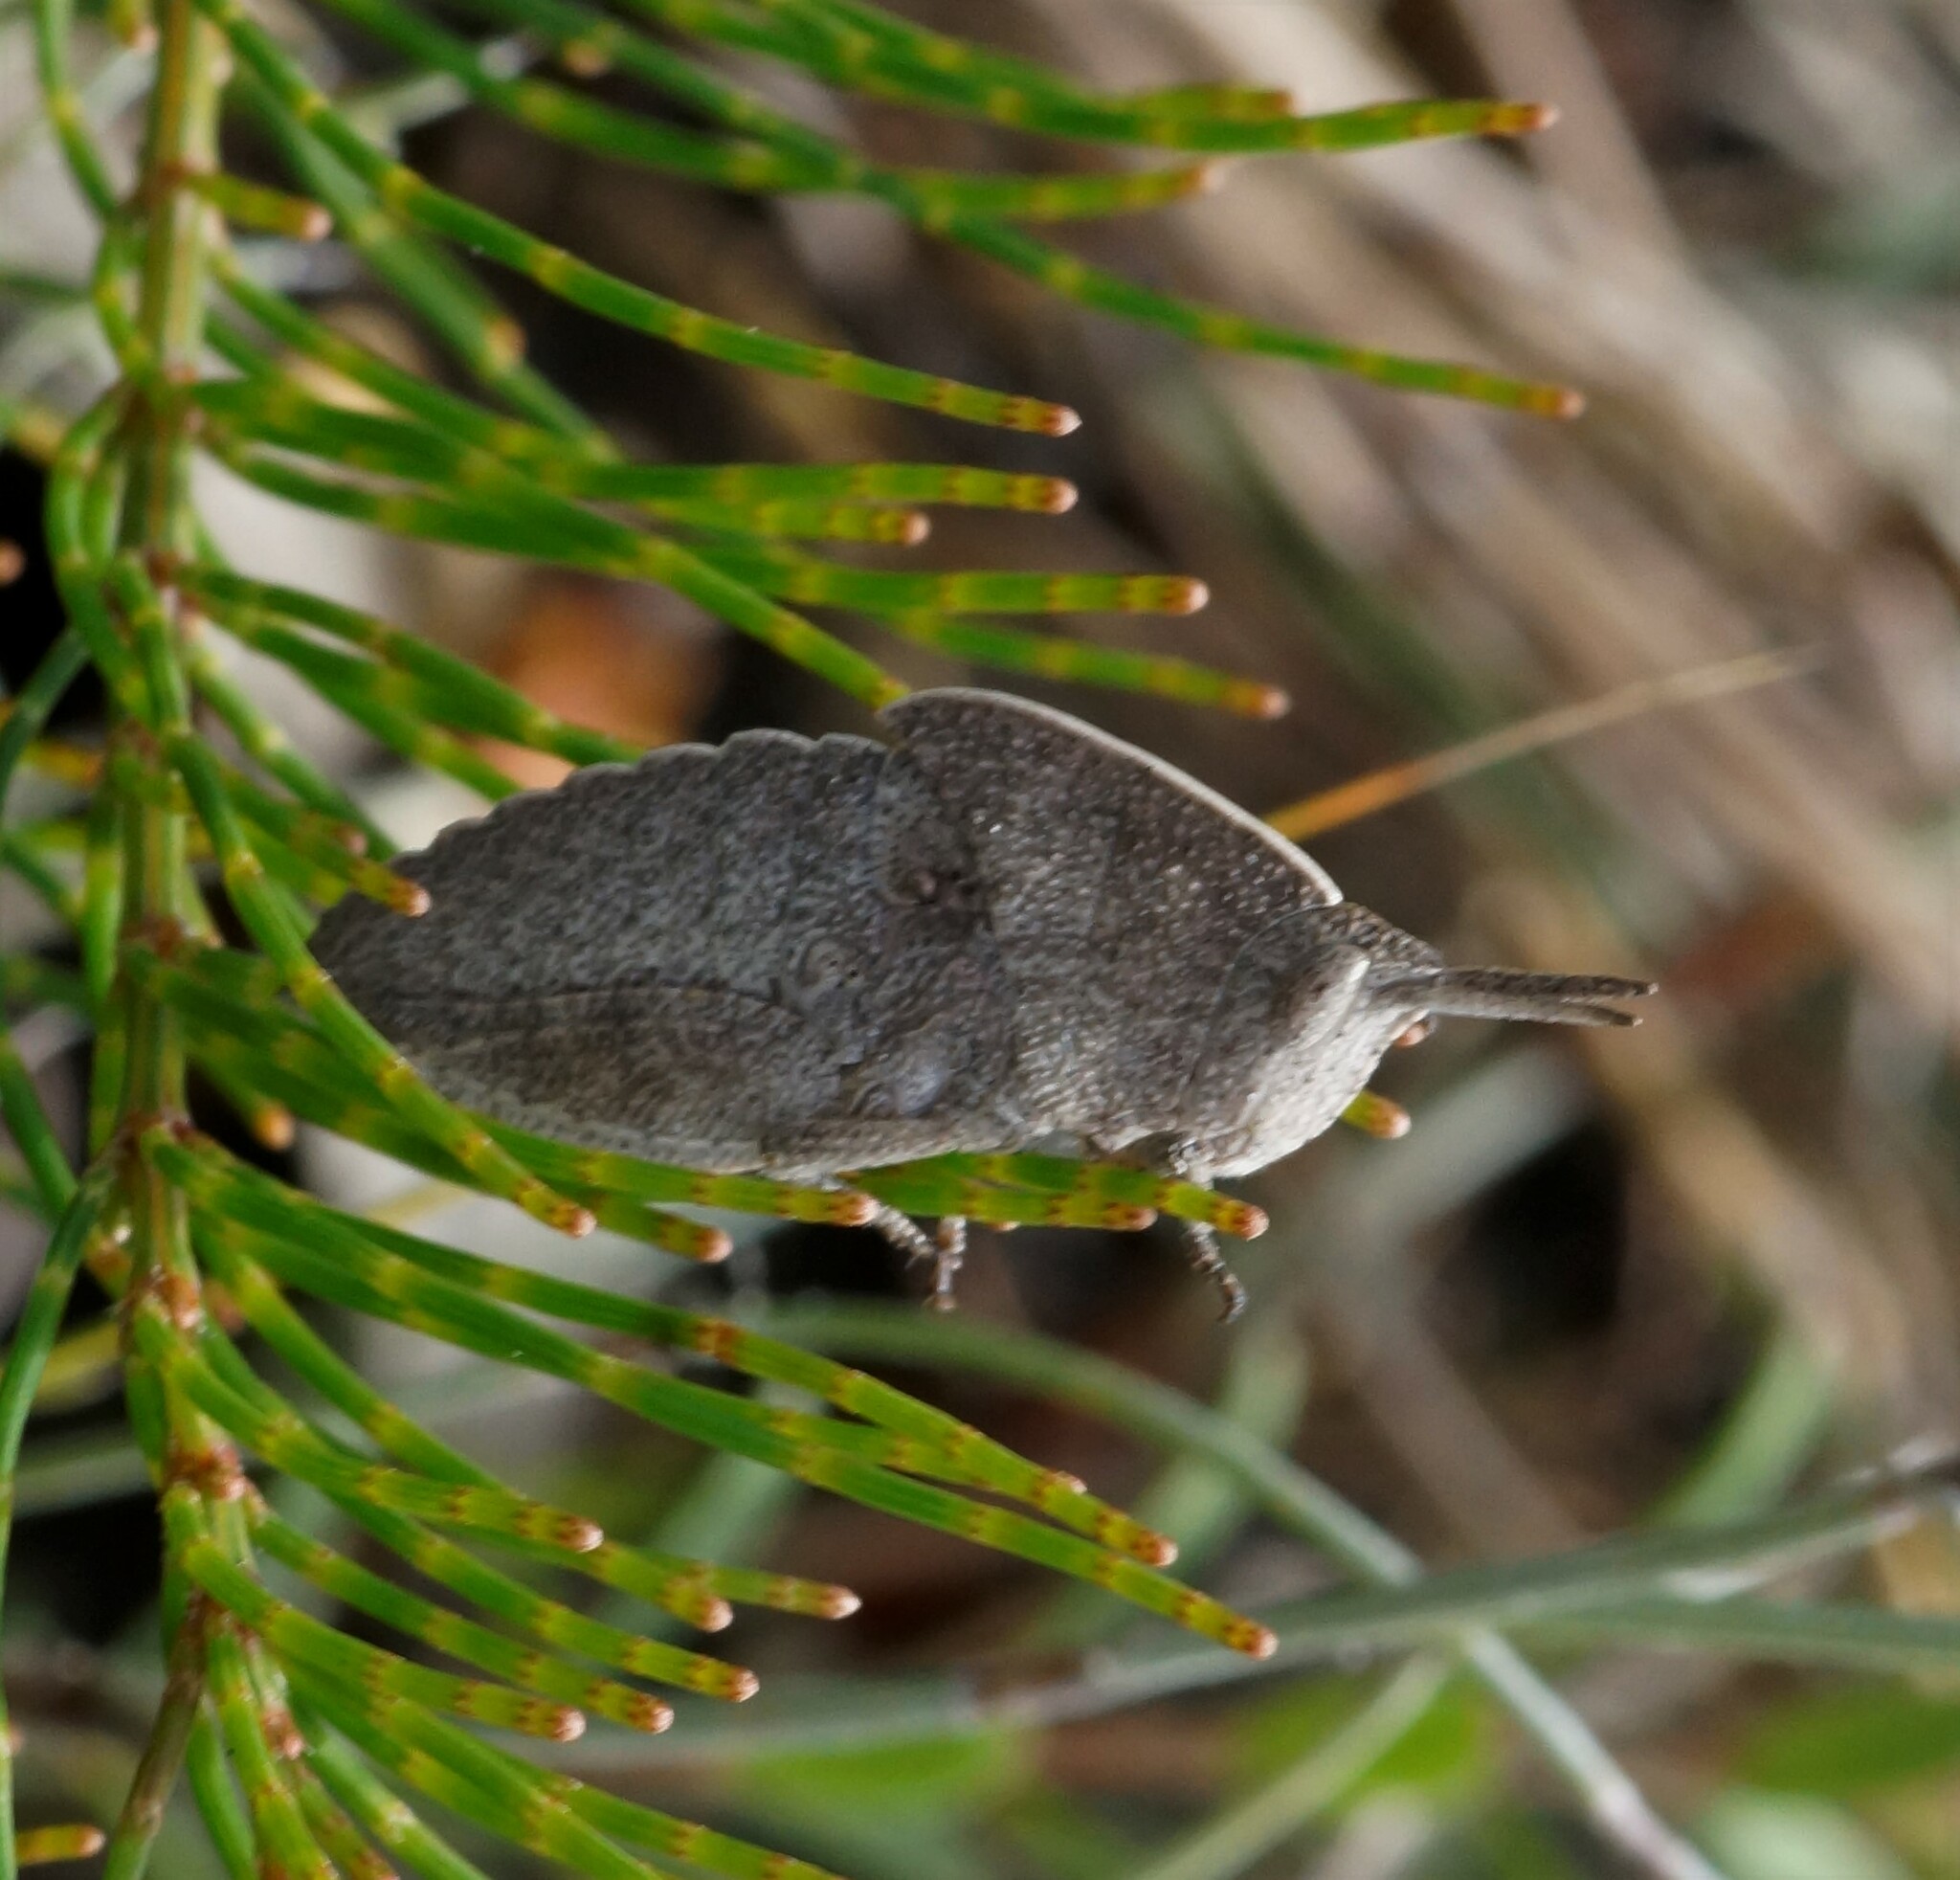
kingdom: Animalia
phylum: Arthropoda
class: Insecta
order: Orthoptera
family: Acrididae
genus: Goniaea
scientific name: Goniaea australasiae
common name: Gumleaf grasshopper
